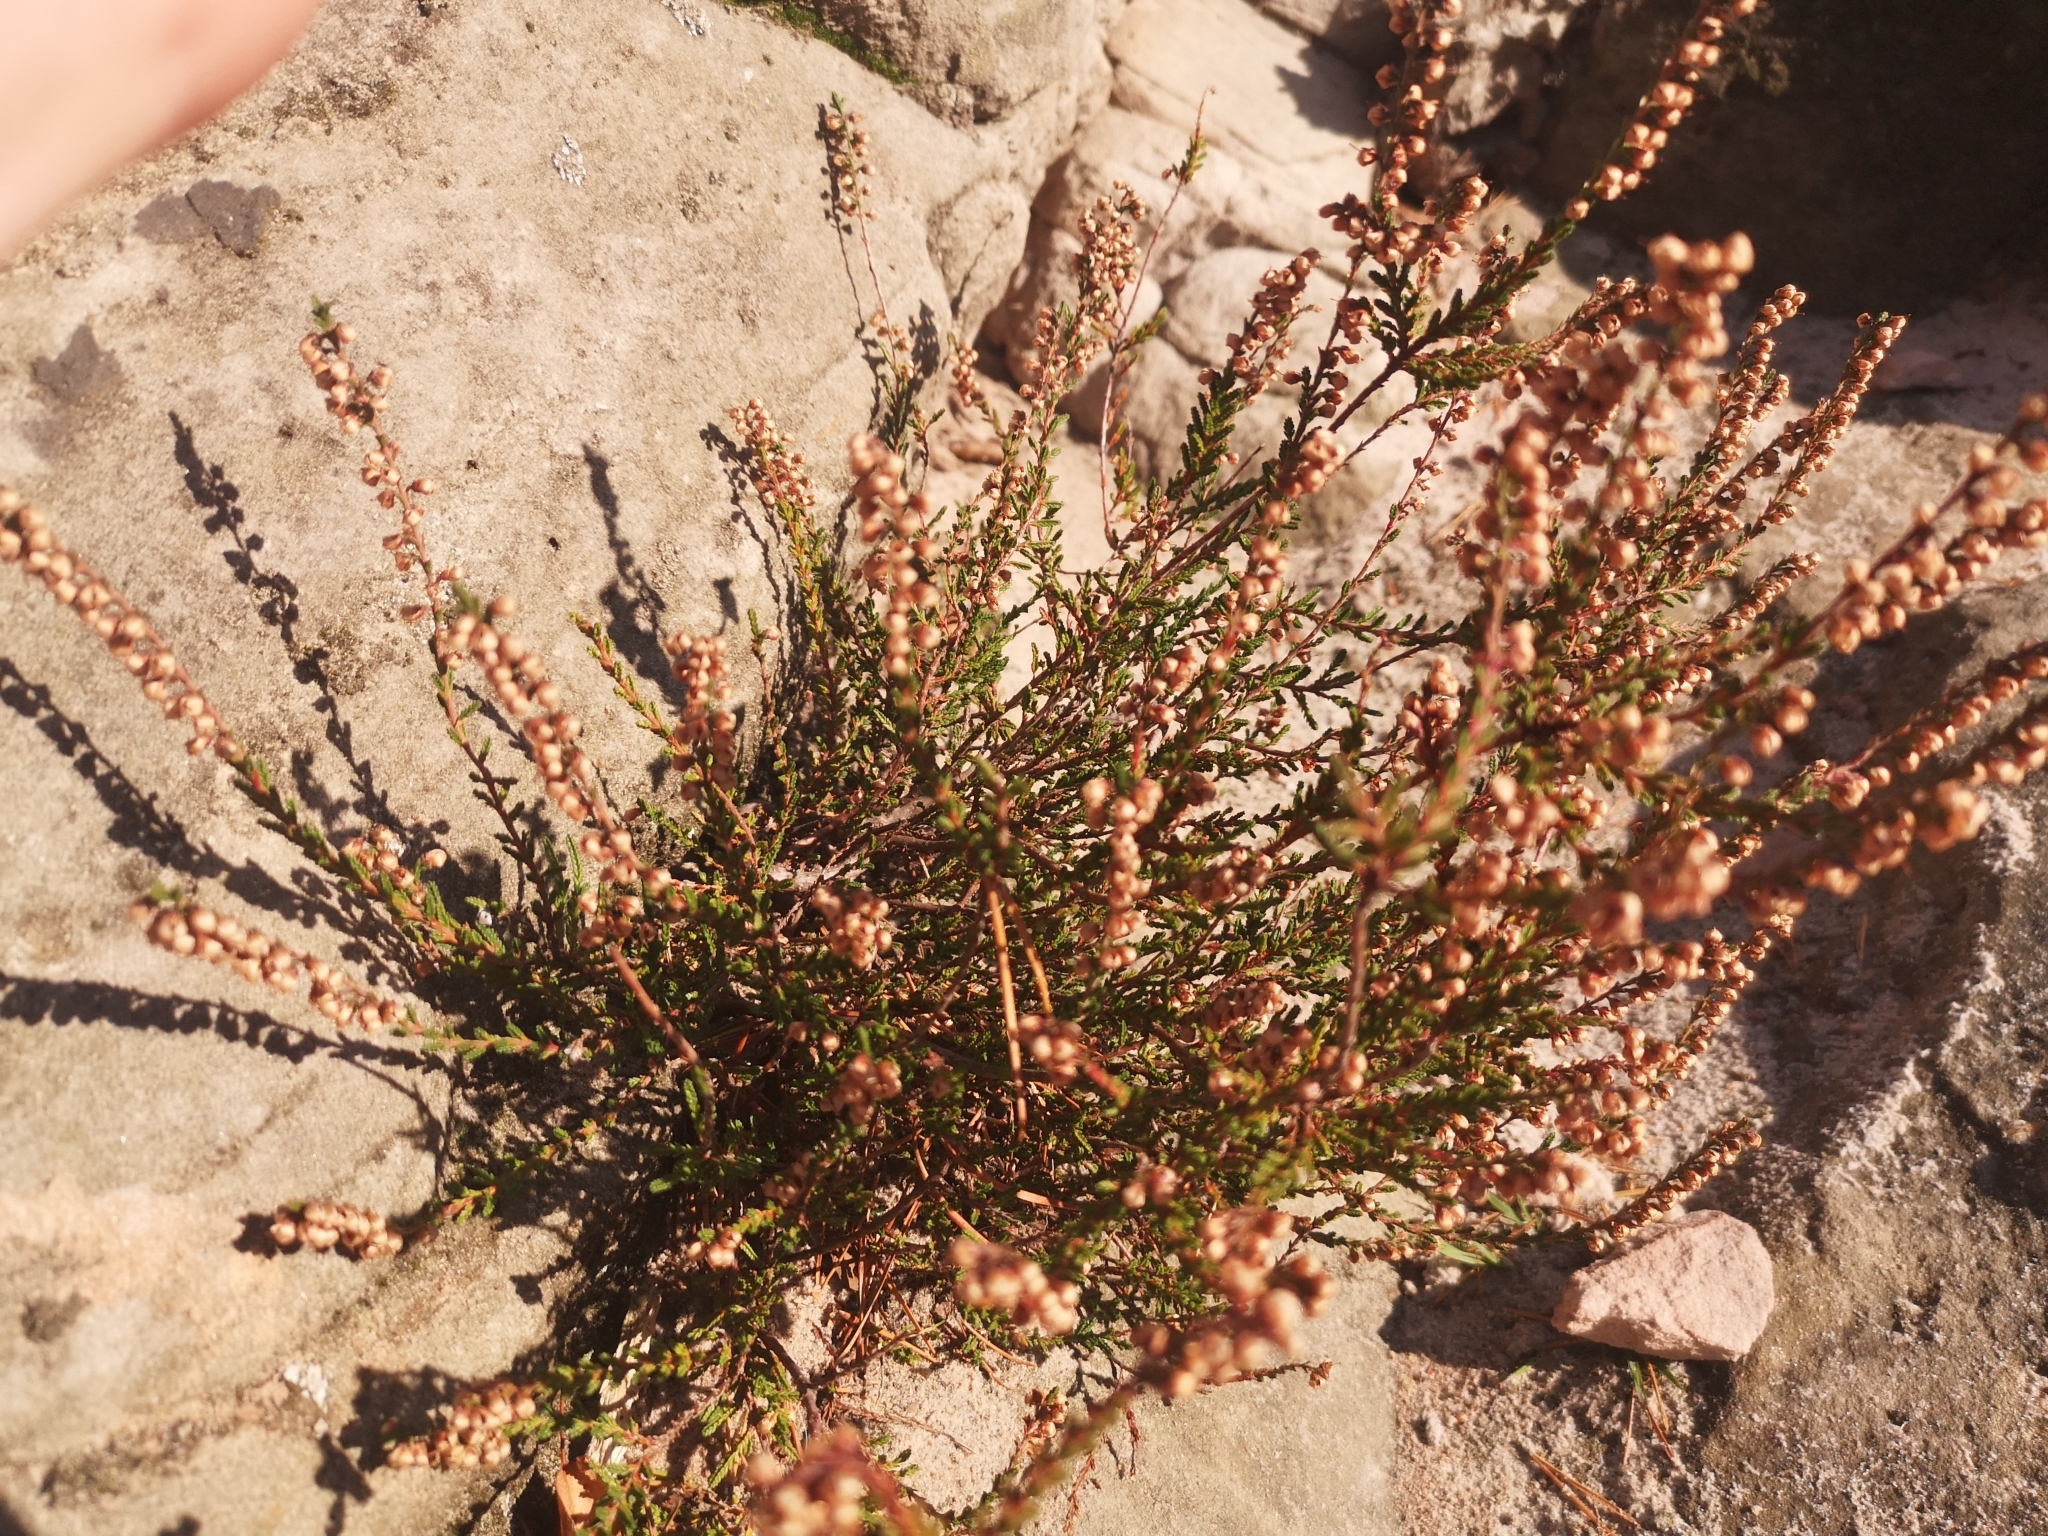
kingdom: Plantae
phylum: Tracheophyta
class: Magnoliopsida
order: Ericales
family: Ericaceae
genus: Calluna
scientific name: Calluna vulgaris
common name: Heather
